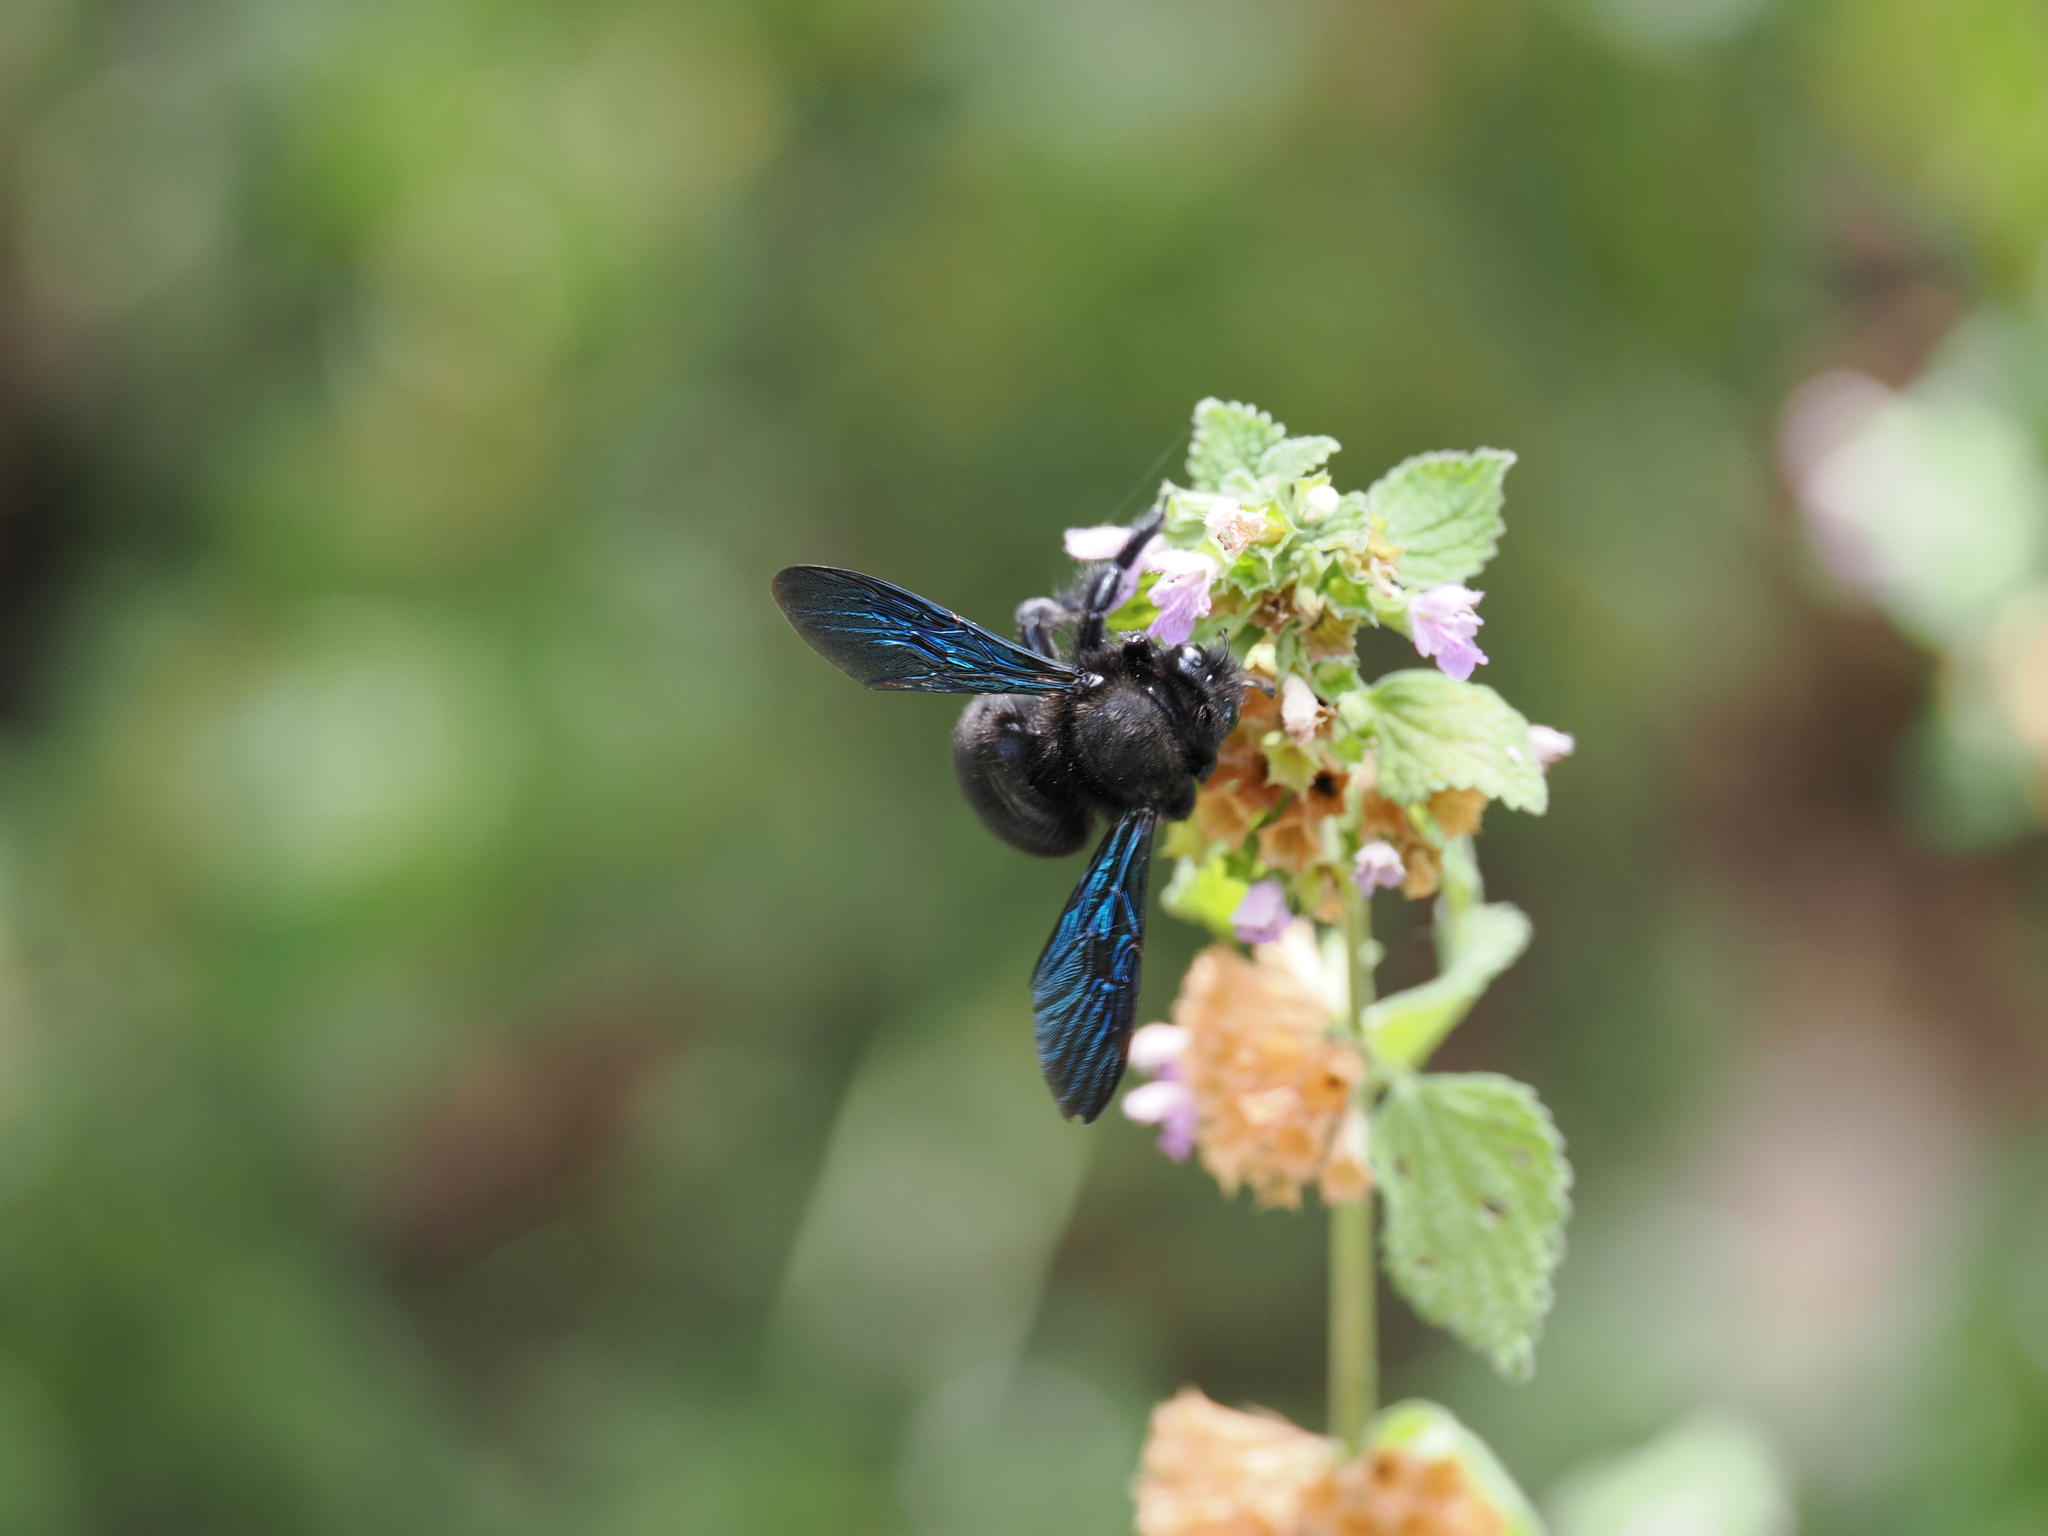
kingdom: Animalia
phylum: Arthropoda
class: Insecta
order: Hymenoptera
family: Apidae
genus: Xylocopa
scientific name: Xylocopa violacea
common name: Violet carpenter bee
